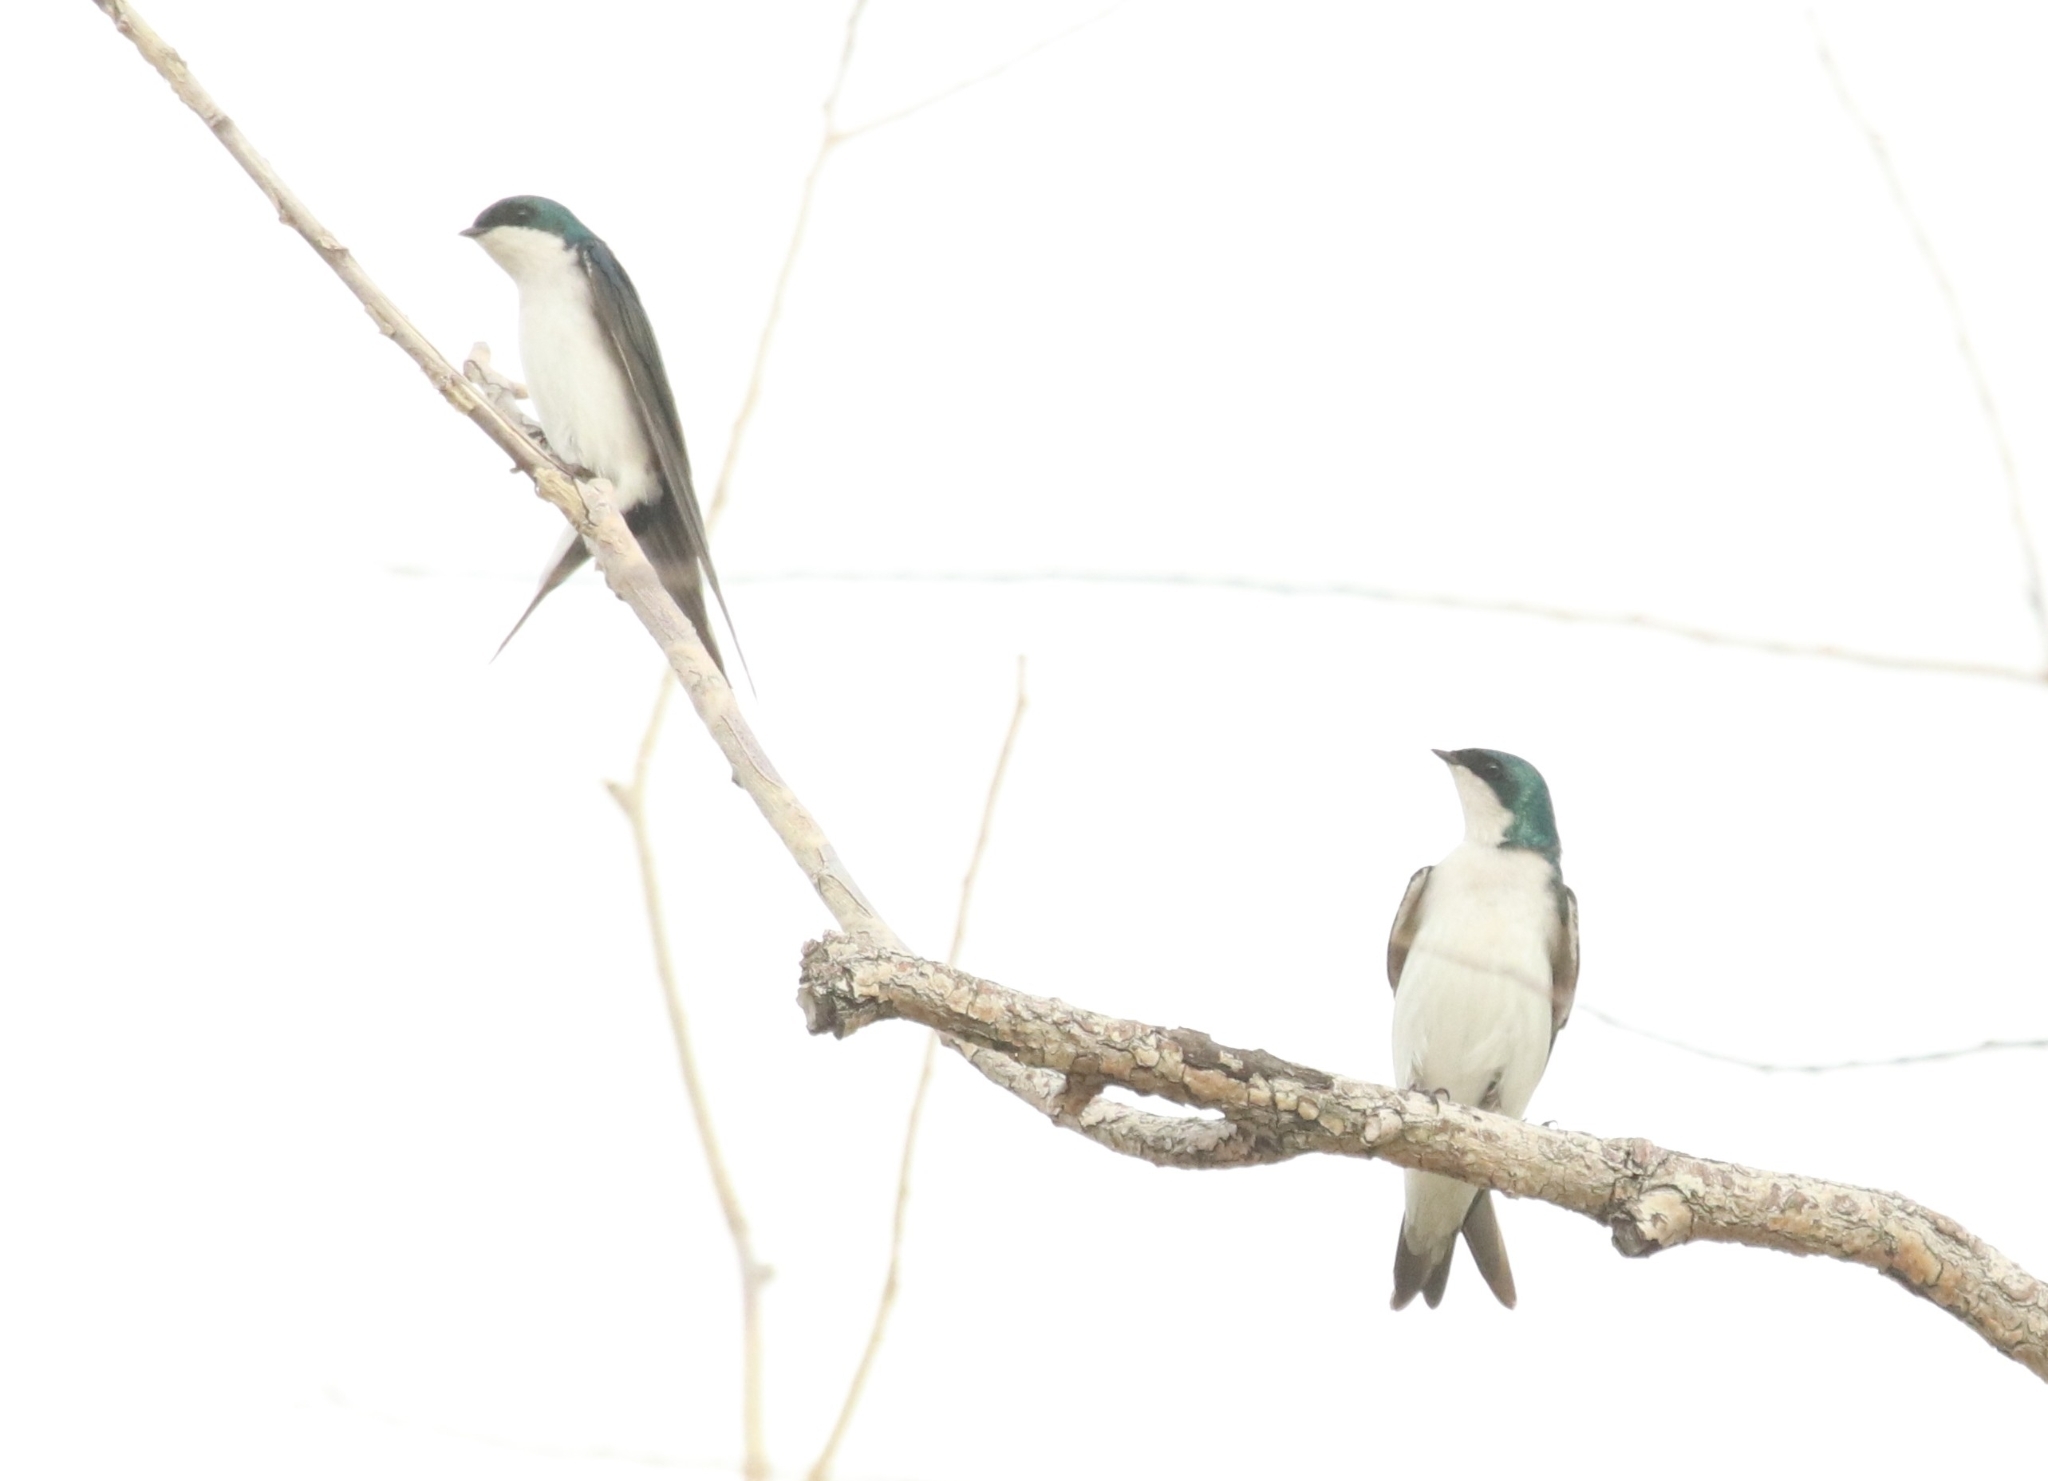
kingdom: Animalia
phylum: Chordata
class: Aves
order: Passeriformes
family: Hirundinidae
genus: Tachycineta
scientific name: Tachycineta bicolor
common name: Tree swallow
